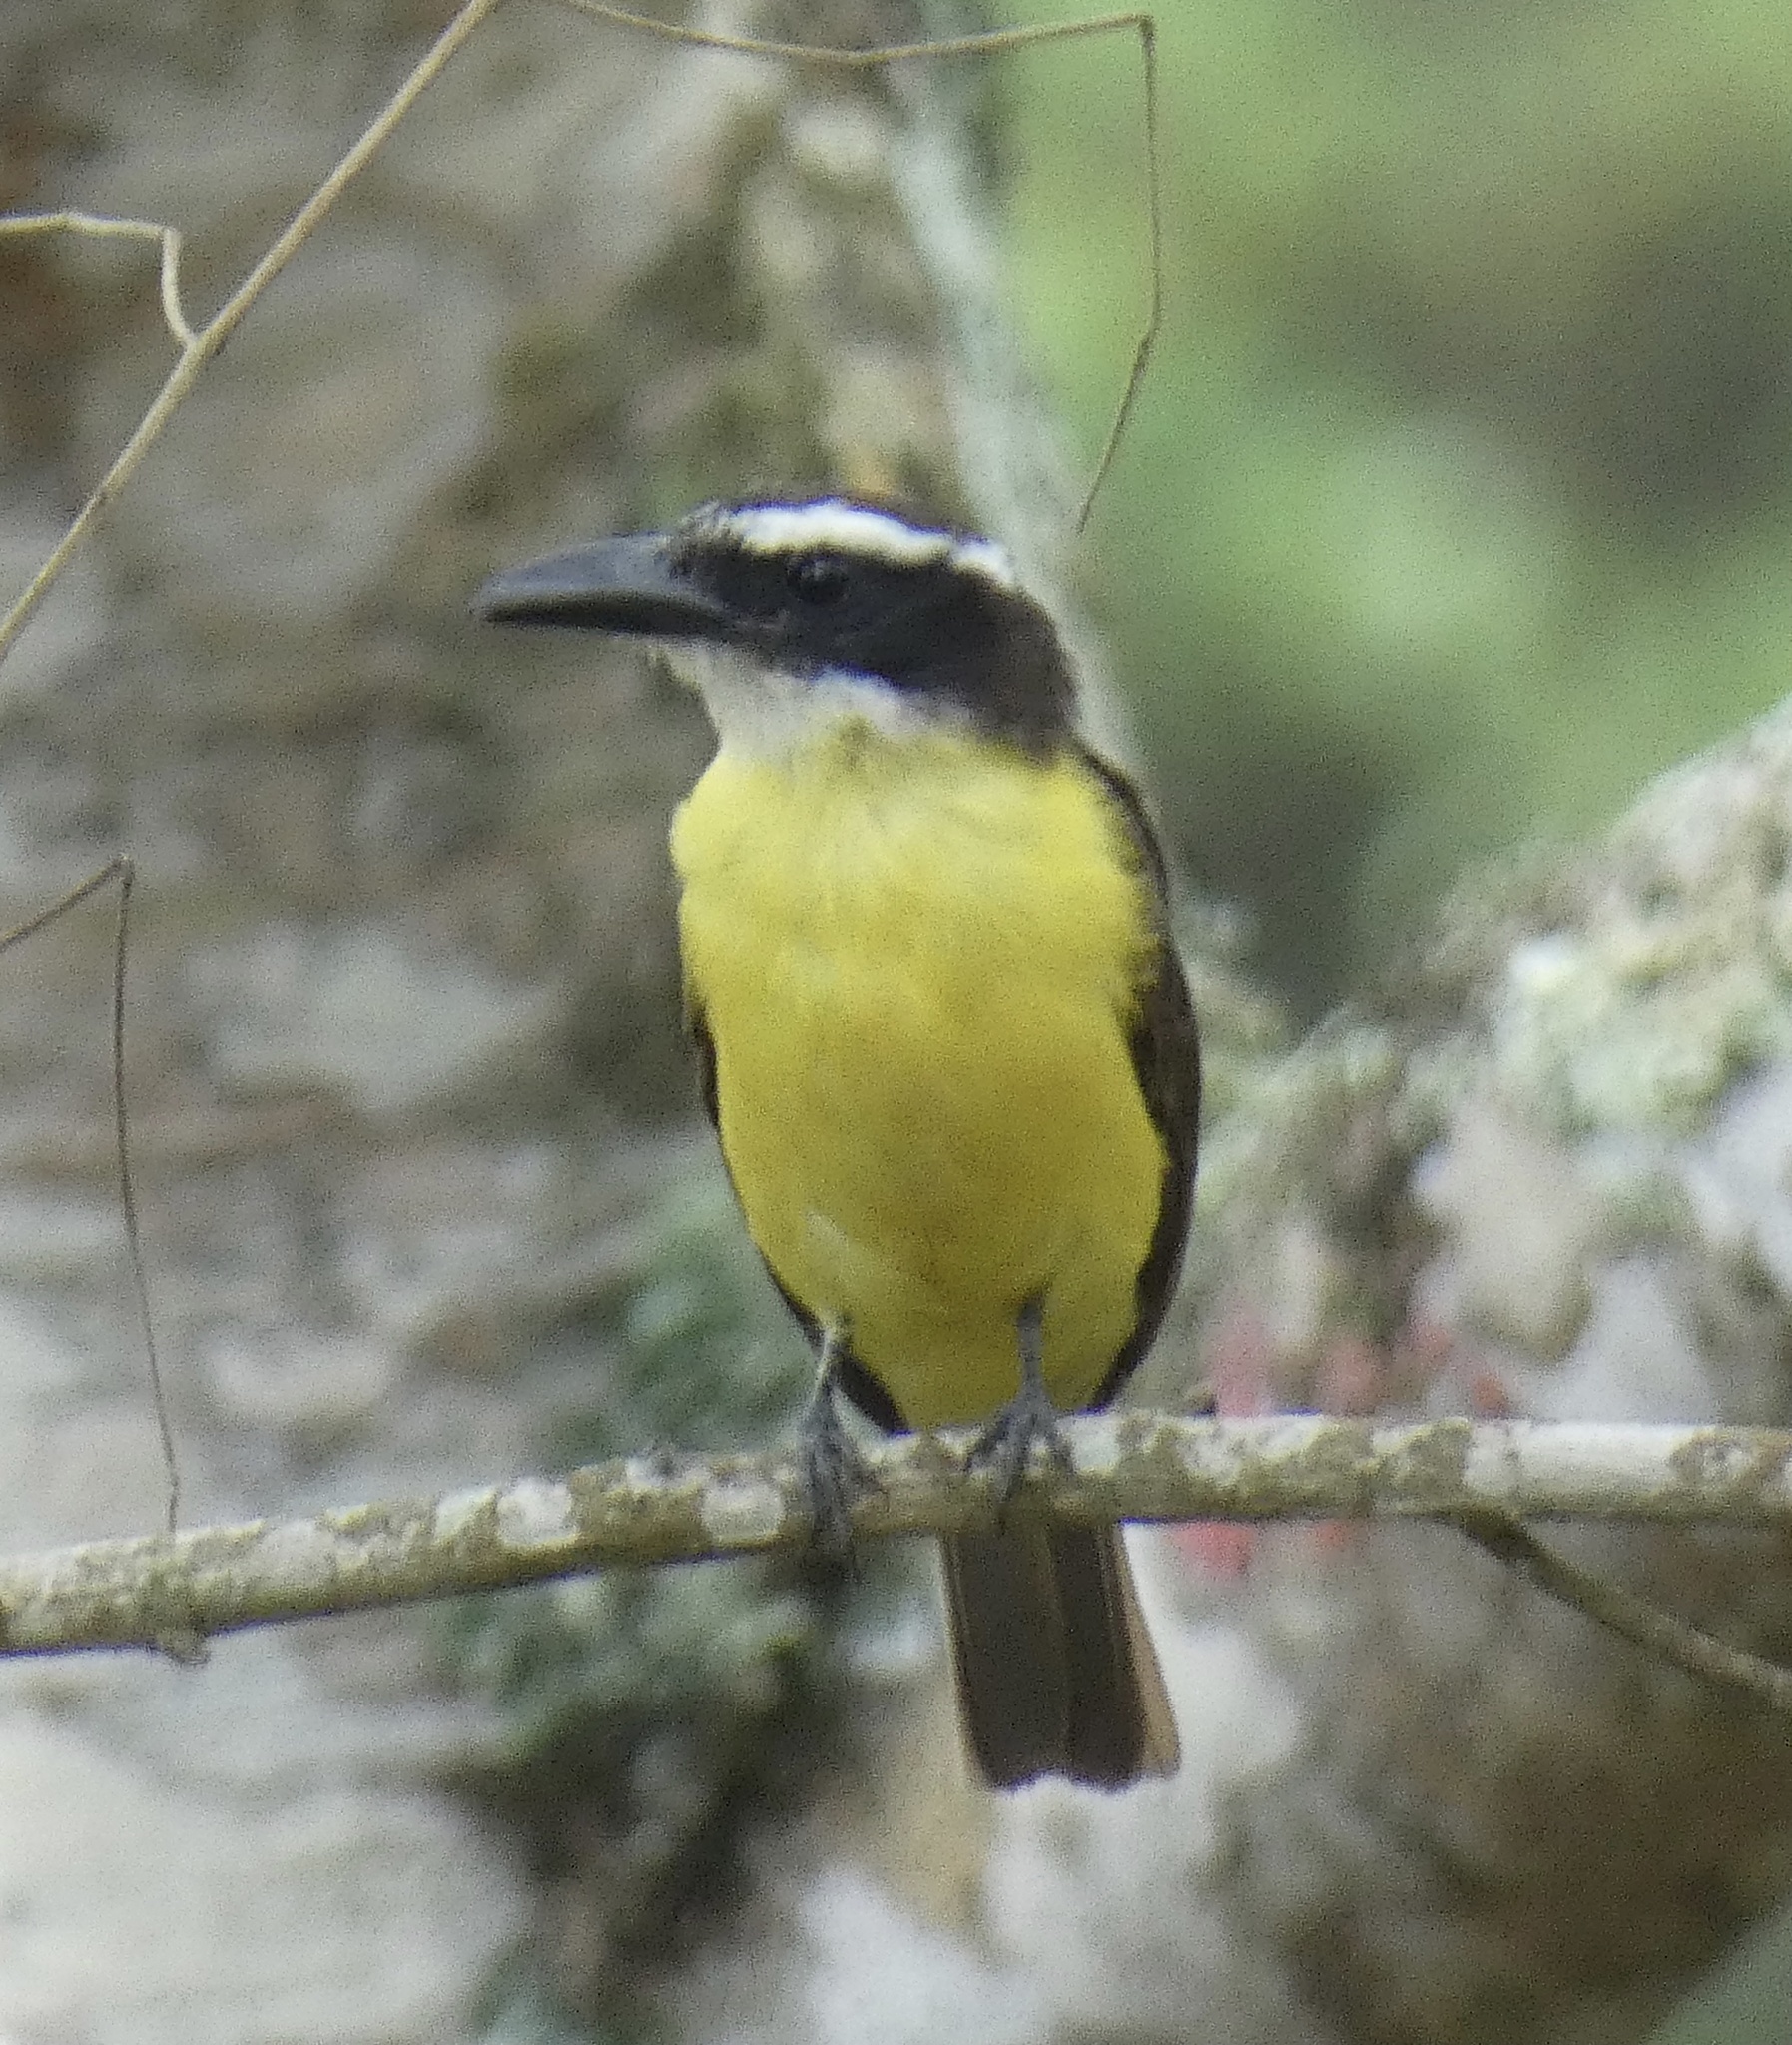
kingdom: Animalia
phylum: Chordata
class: Aves
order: Passeriformes
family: Tyrannidae
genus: Megarynchus
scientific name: Megarynchus pitangua
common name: Boat-billed flycatcher
